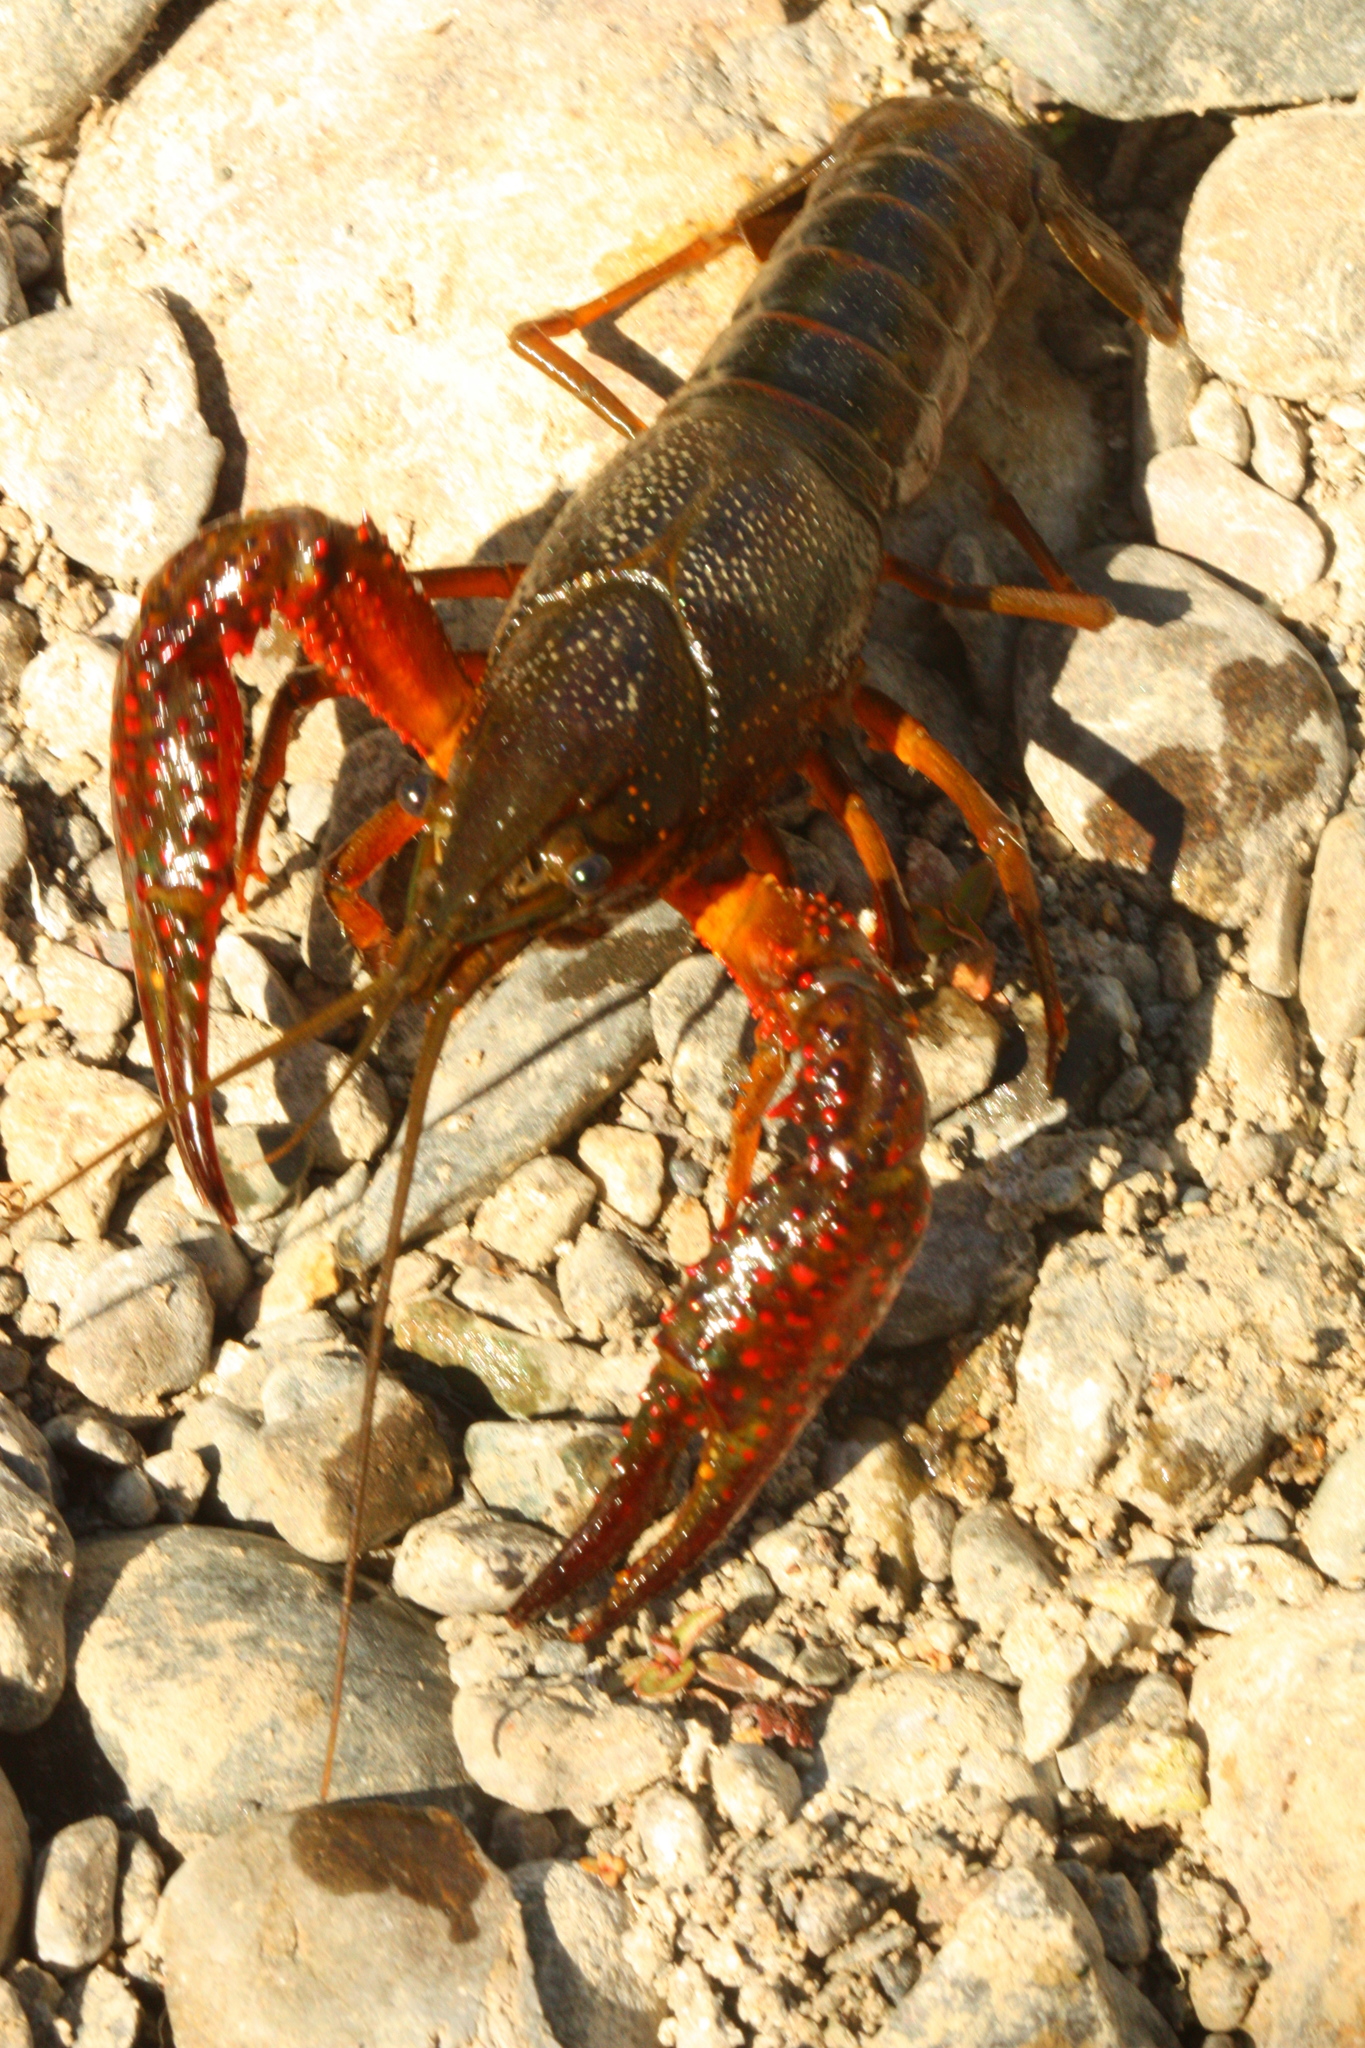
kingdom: Animalia
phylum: Arthropoda
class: Malacostraca
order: Decapoda
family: Cambaridae
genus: Procambarus
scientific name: Procambarus clarkii
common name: Red swamp crayfish
